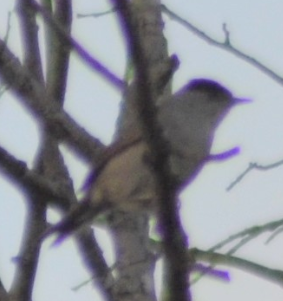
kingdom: Animalia
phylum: Chordata
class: Aves
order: Passeriformes
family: Sylviidae
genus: Sylvia
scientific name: Sylvia atricapilla
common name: Eurasian blackcap
